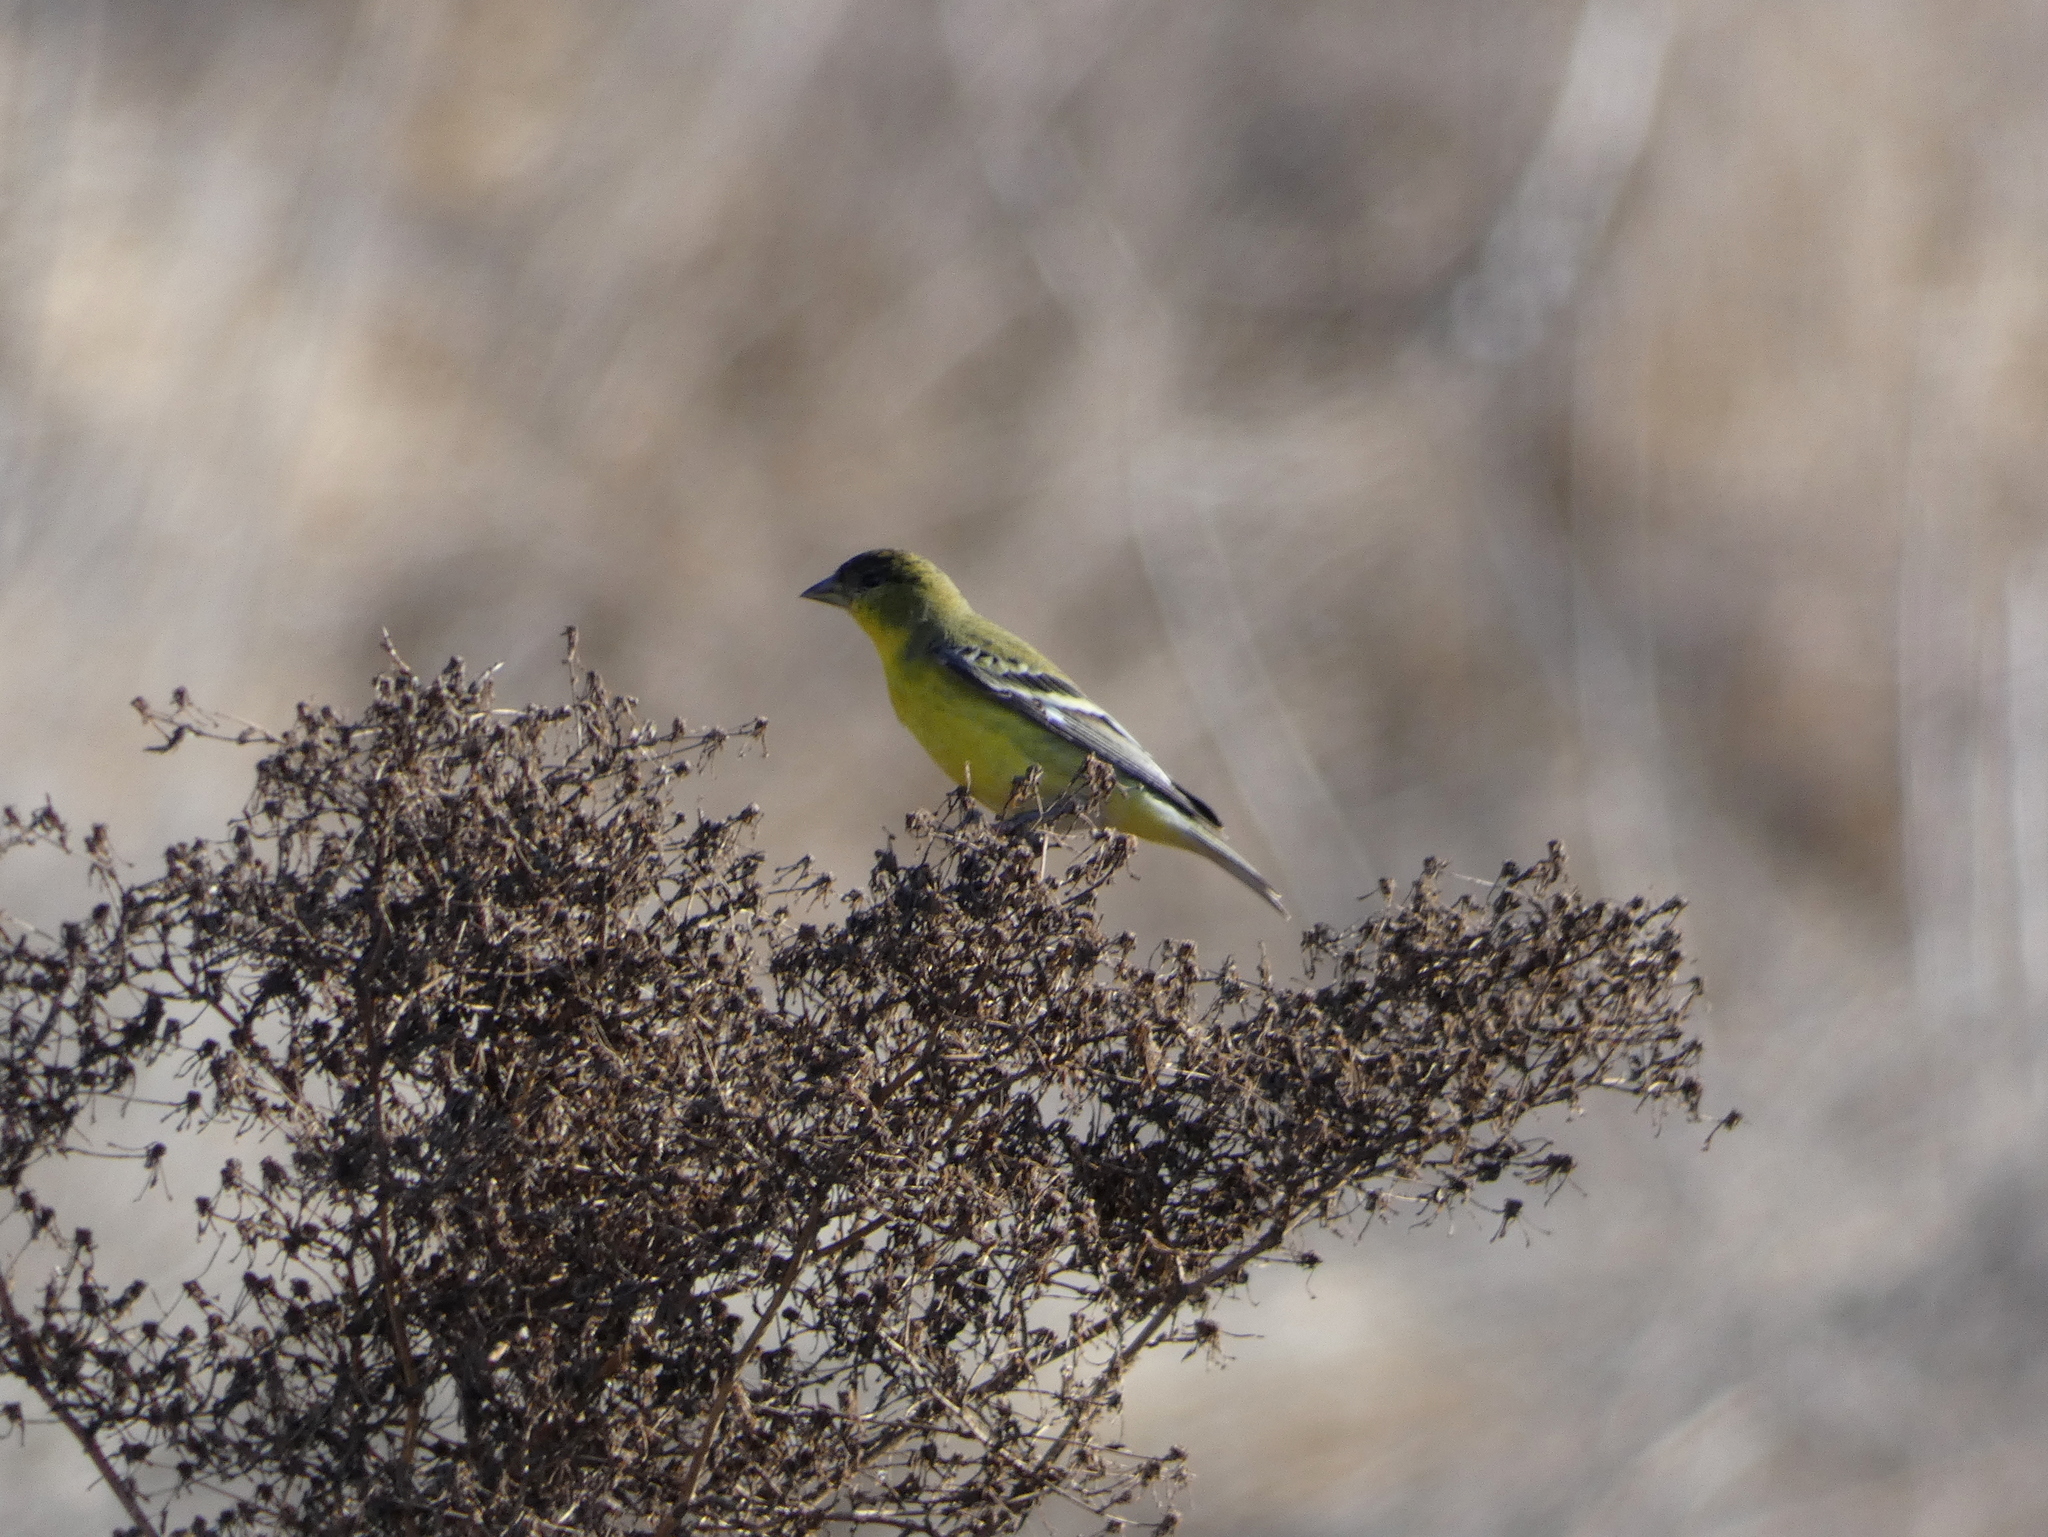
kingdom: Animalia
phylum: Chordata
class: Aves
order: Passeriformes
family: Fringillidae
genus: Spinus
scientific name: Spinus psaltria
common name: Lesser goldfinch
